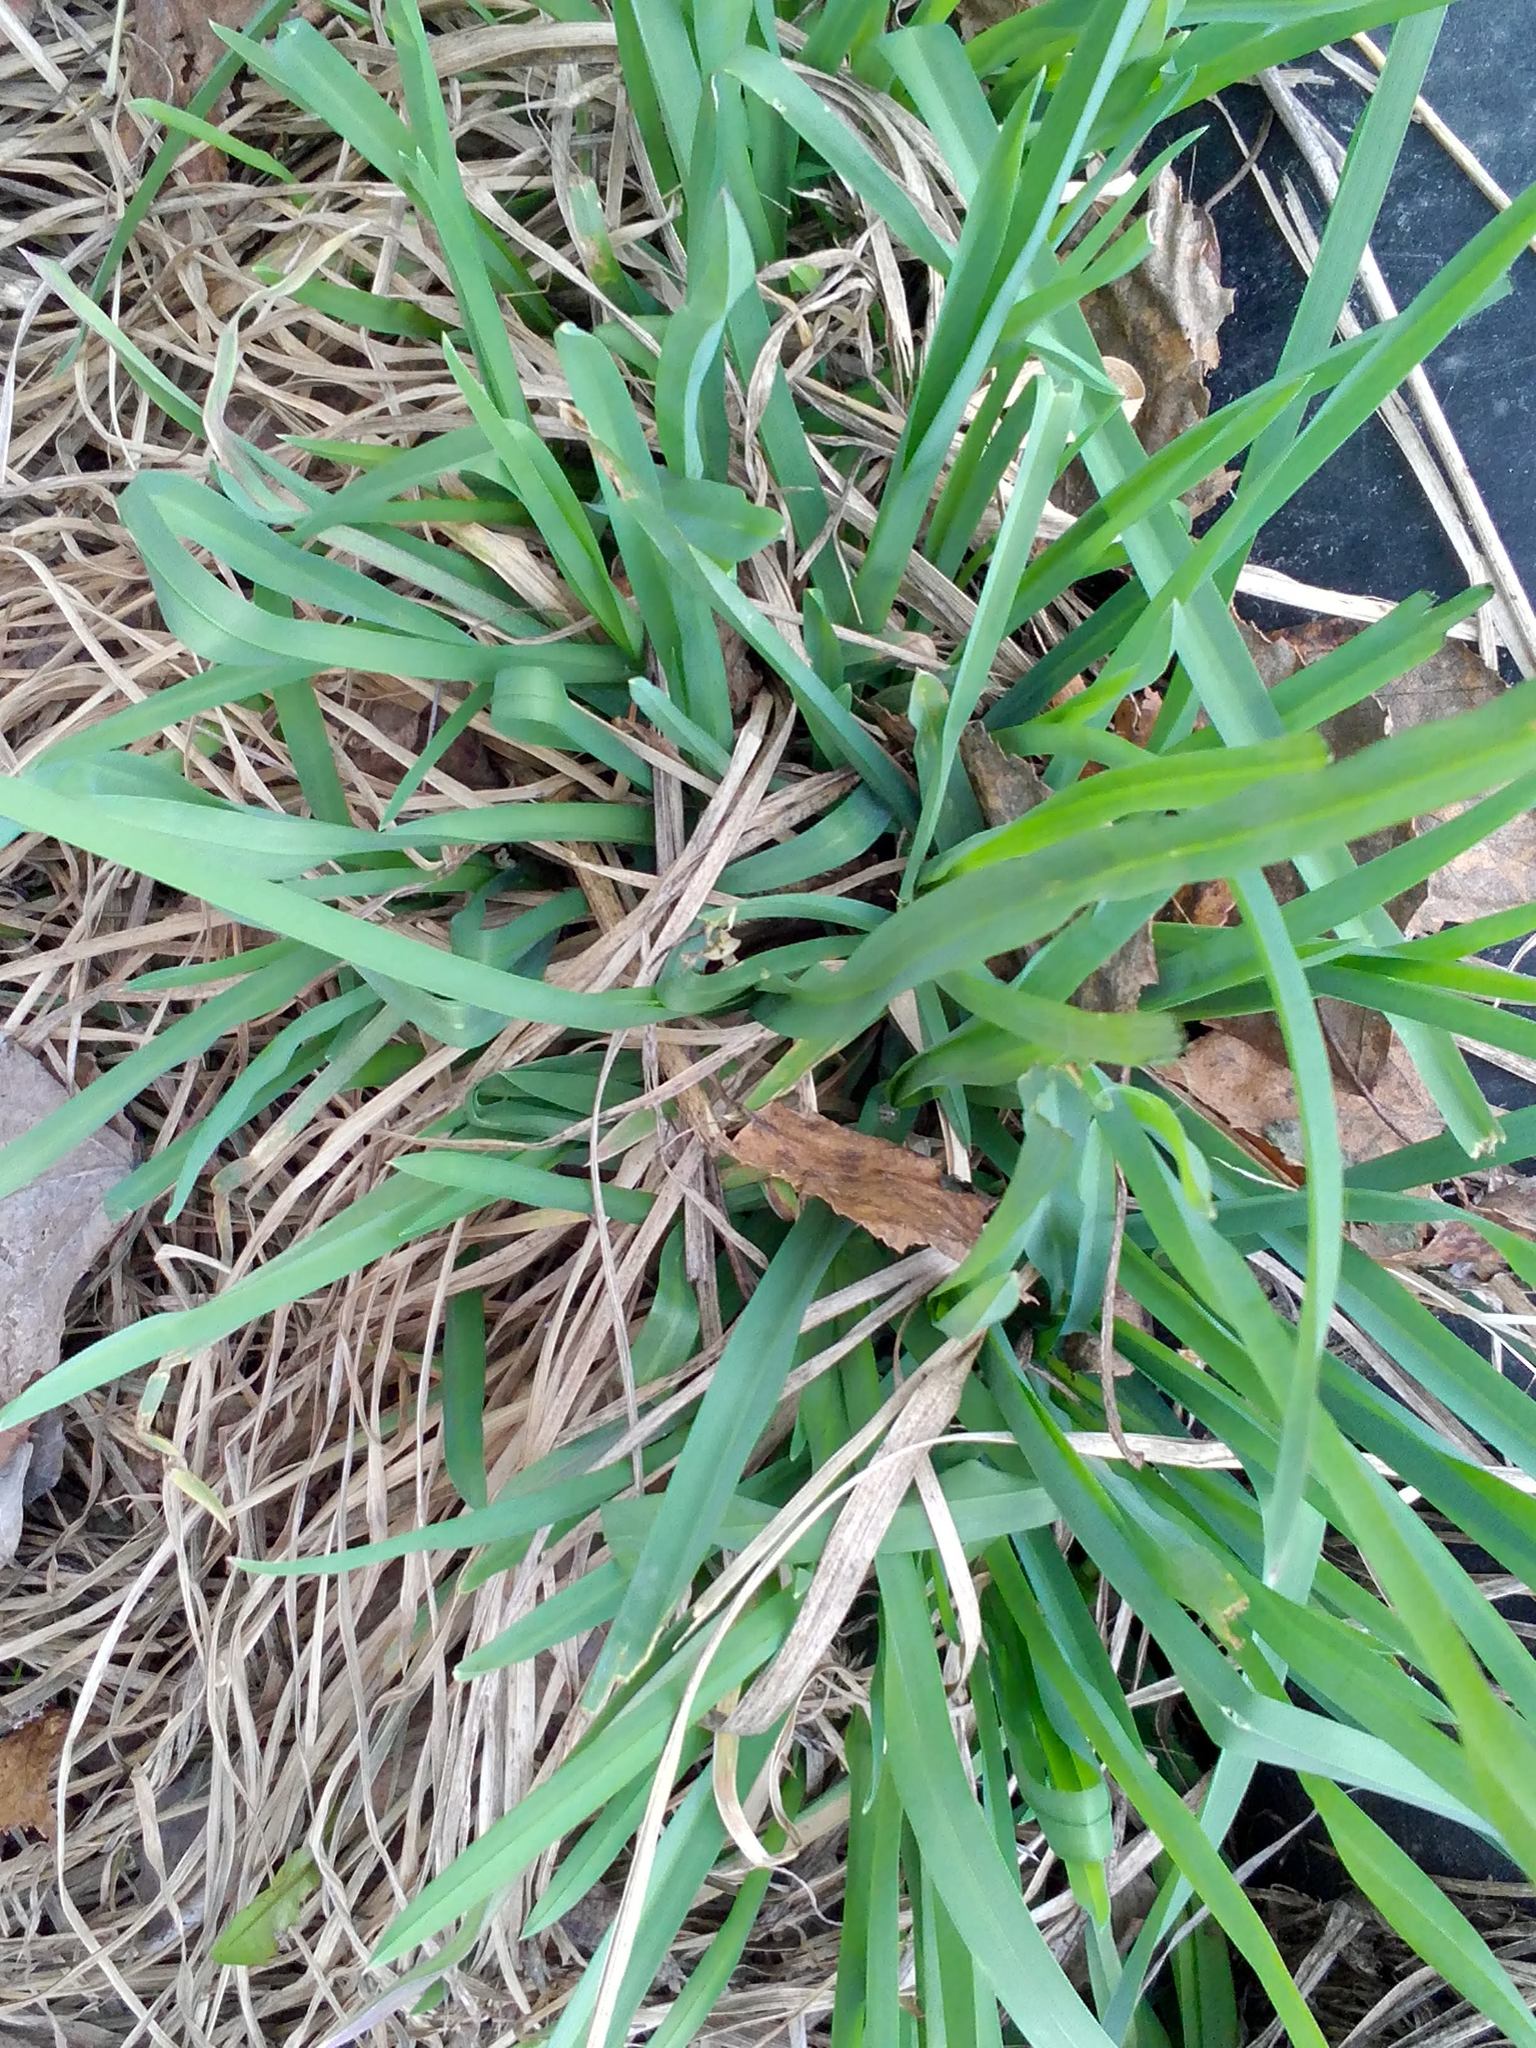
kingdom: Plantae
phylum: Tracheophyta
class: Liliopsida
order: Poales
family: Poaceae
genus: Dactylis
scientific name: Dactylis glomerata
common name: Orchardgrass
